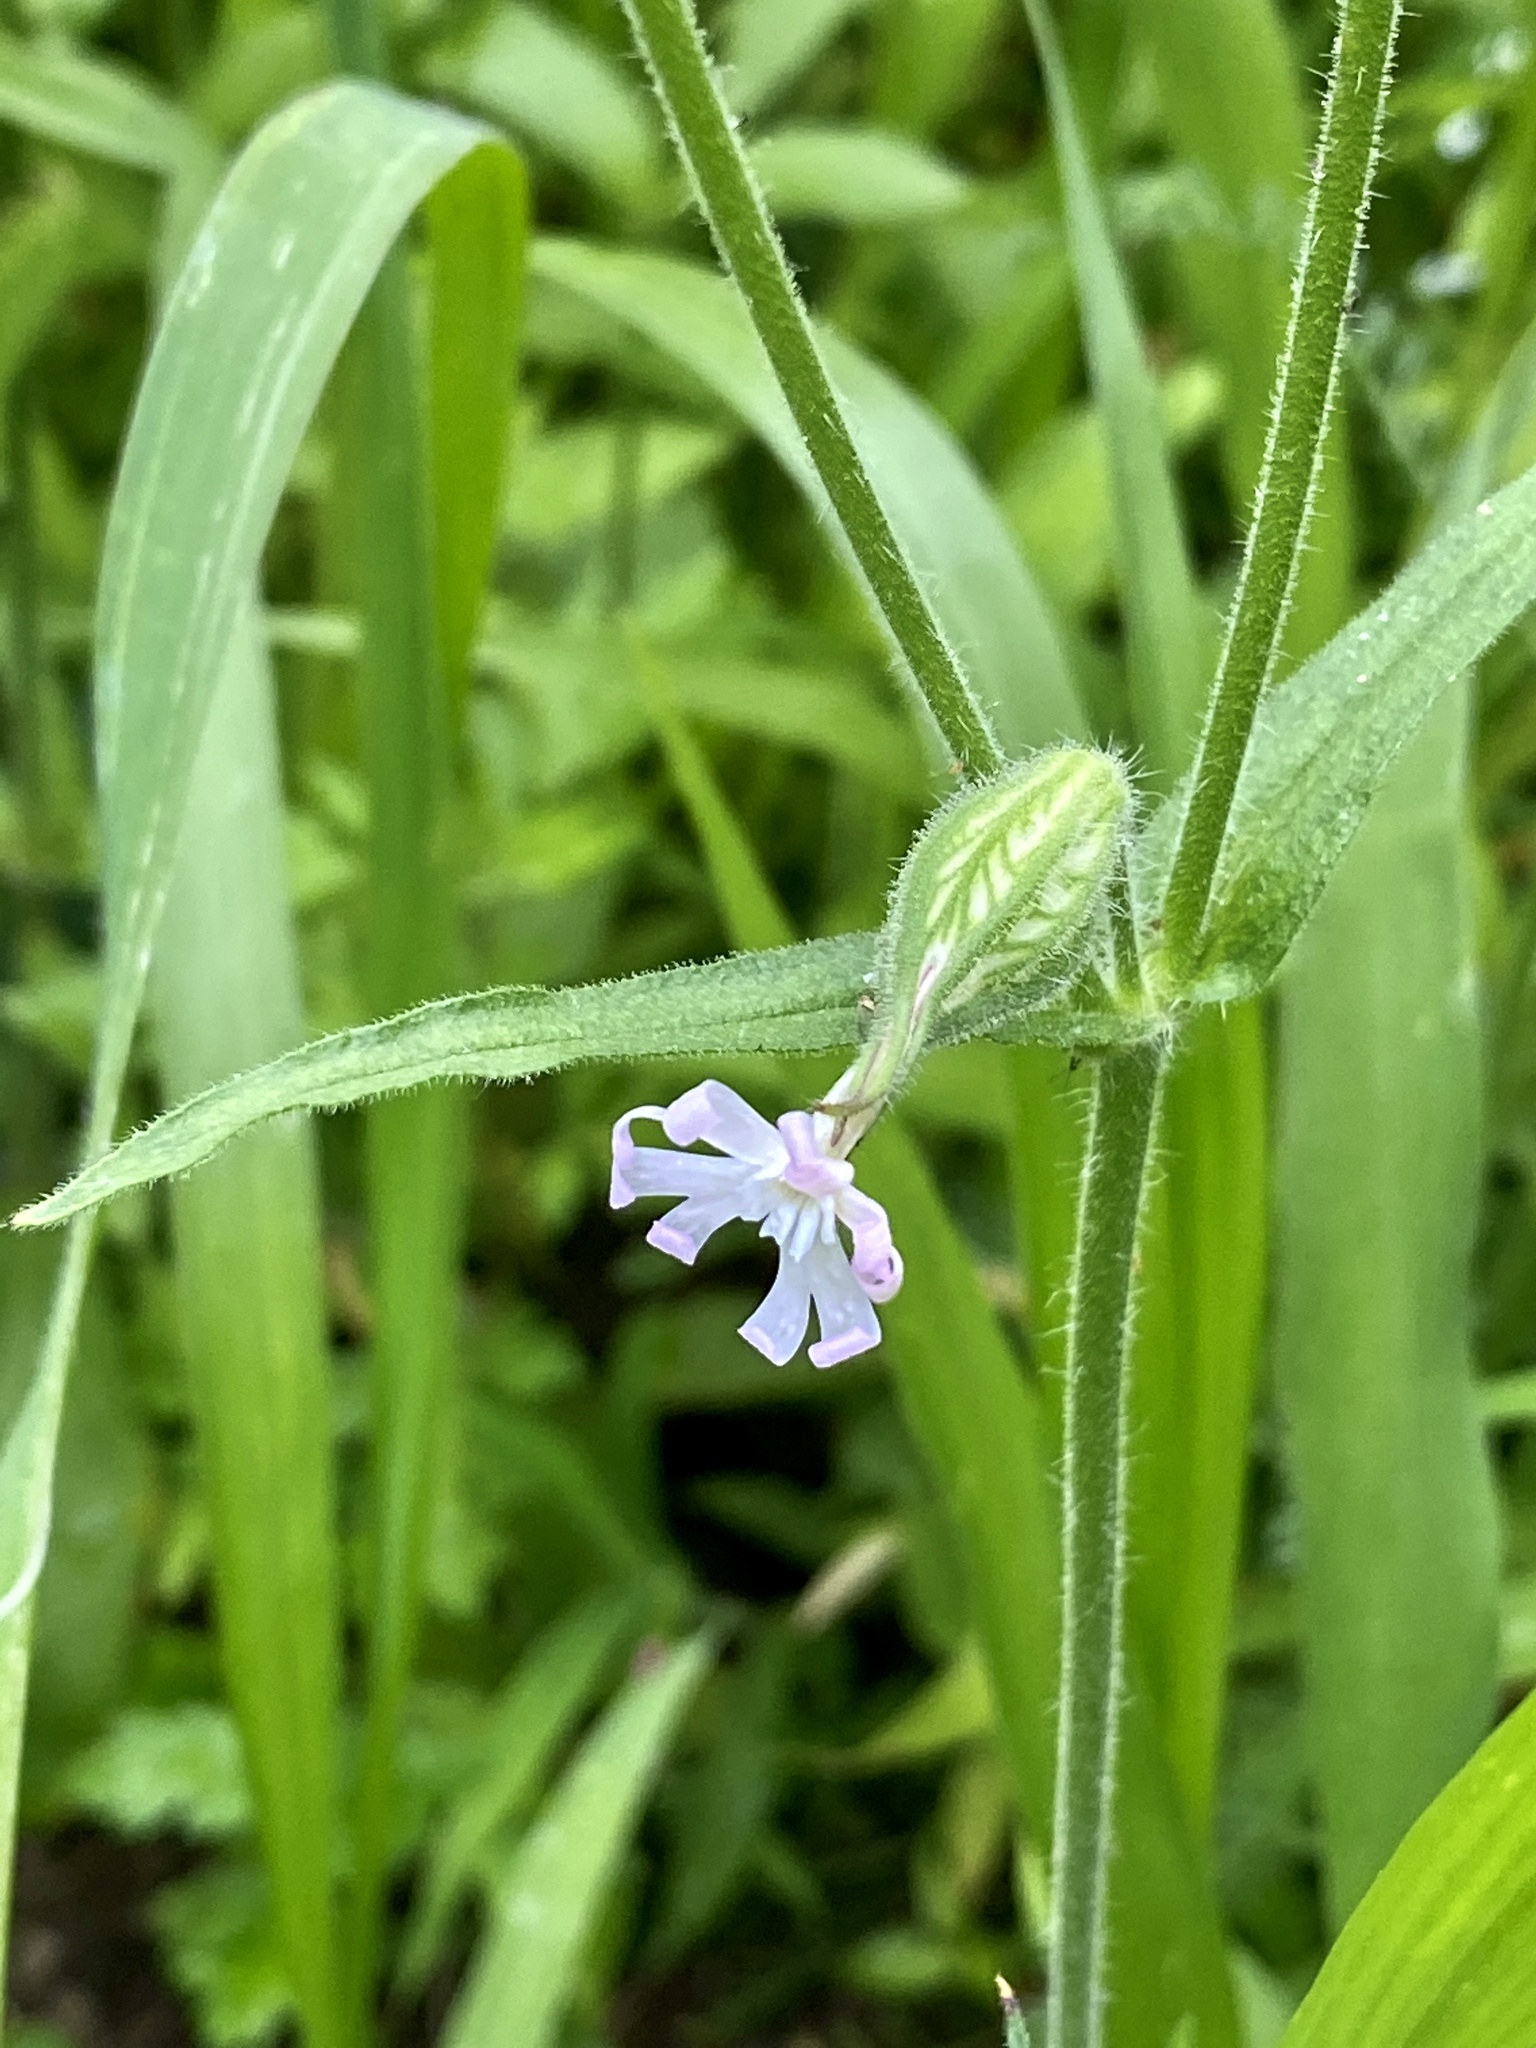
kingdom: Plantae
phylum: Tracheophyta
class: Magnoliopsida
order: Caryophyllales
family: Caryophyllaceae
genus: Silene
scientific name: Silene latifolia
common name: White campion
